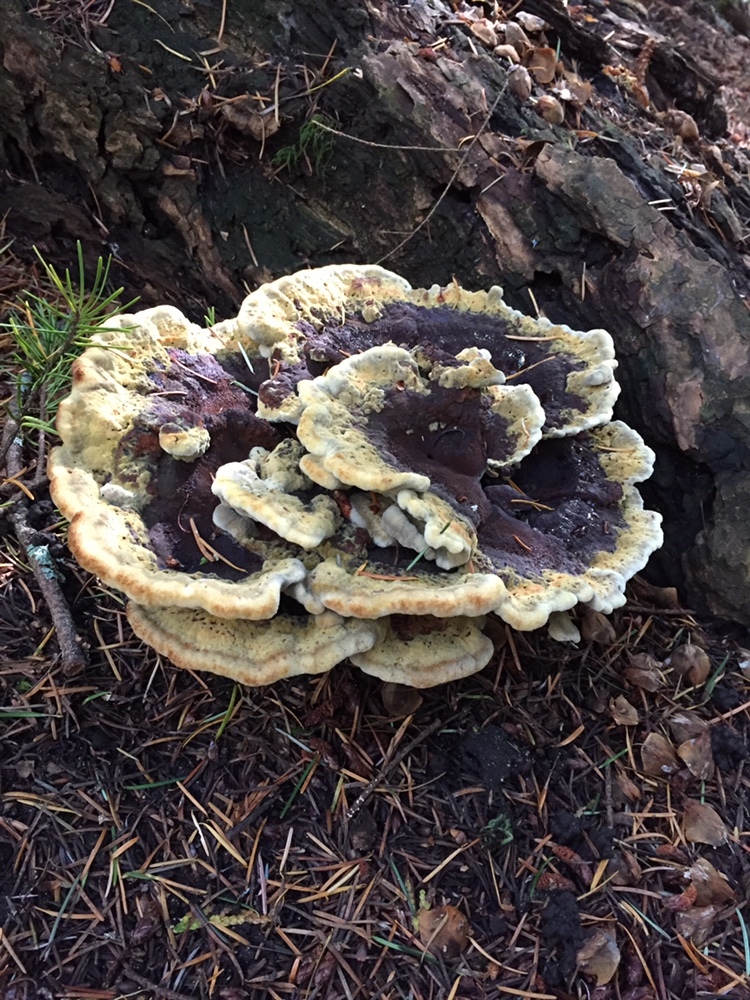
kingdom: Fungi
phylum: Basidiomycota
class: Agaricomycetes
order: Polyporales
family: Laetiporaceae
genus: Phaeolus
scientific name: Phaeolus schweinitzii
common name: Dyer's mazegill
